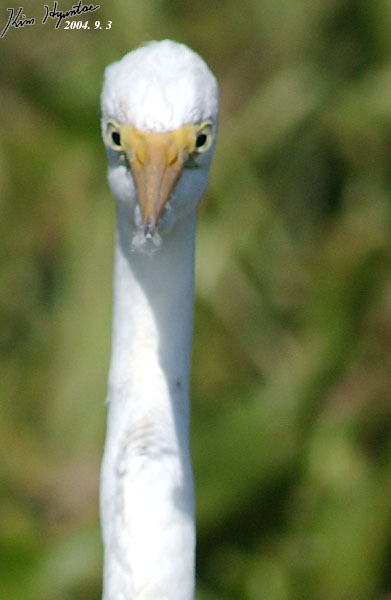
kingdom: Animalia
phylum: Chordata
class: Aves
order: Pelecaniformes
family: Ardeidae
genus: Ardea
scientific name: Ardea alba
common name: Great egret
